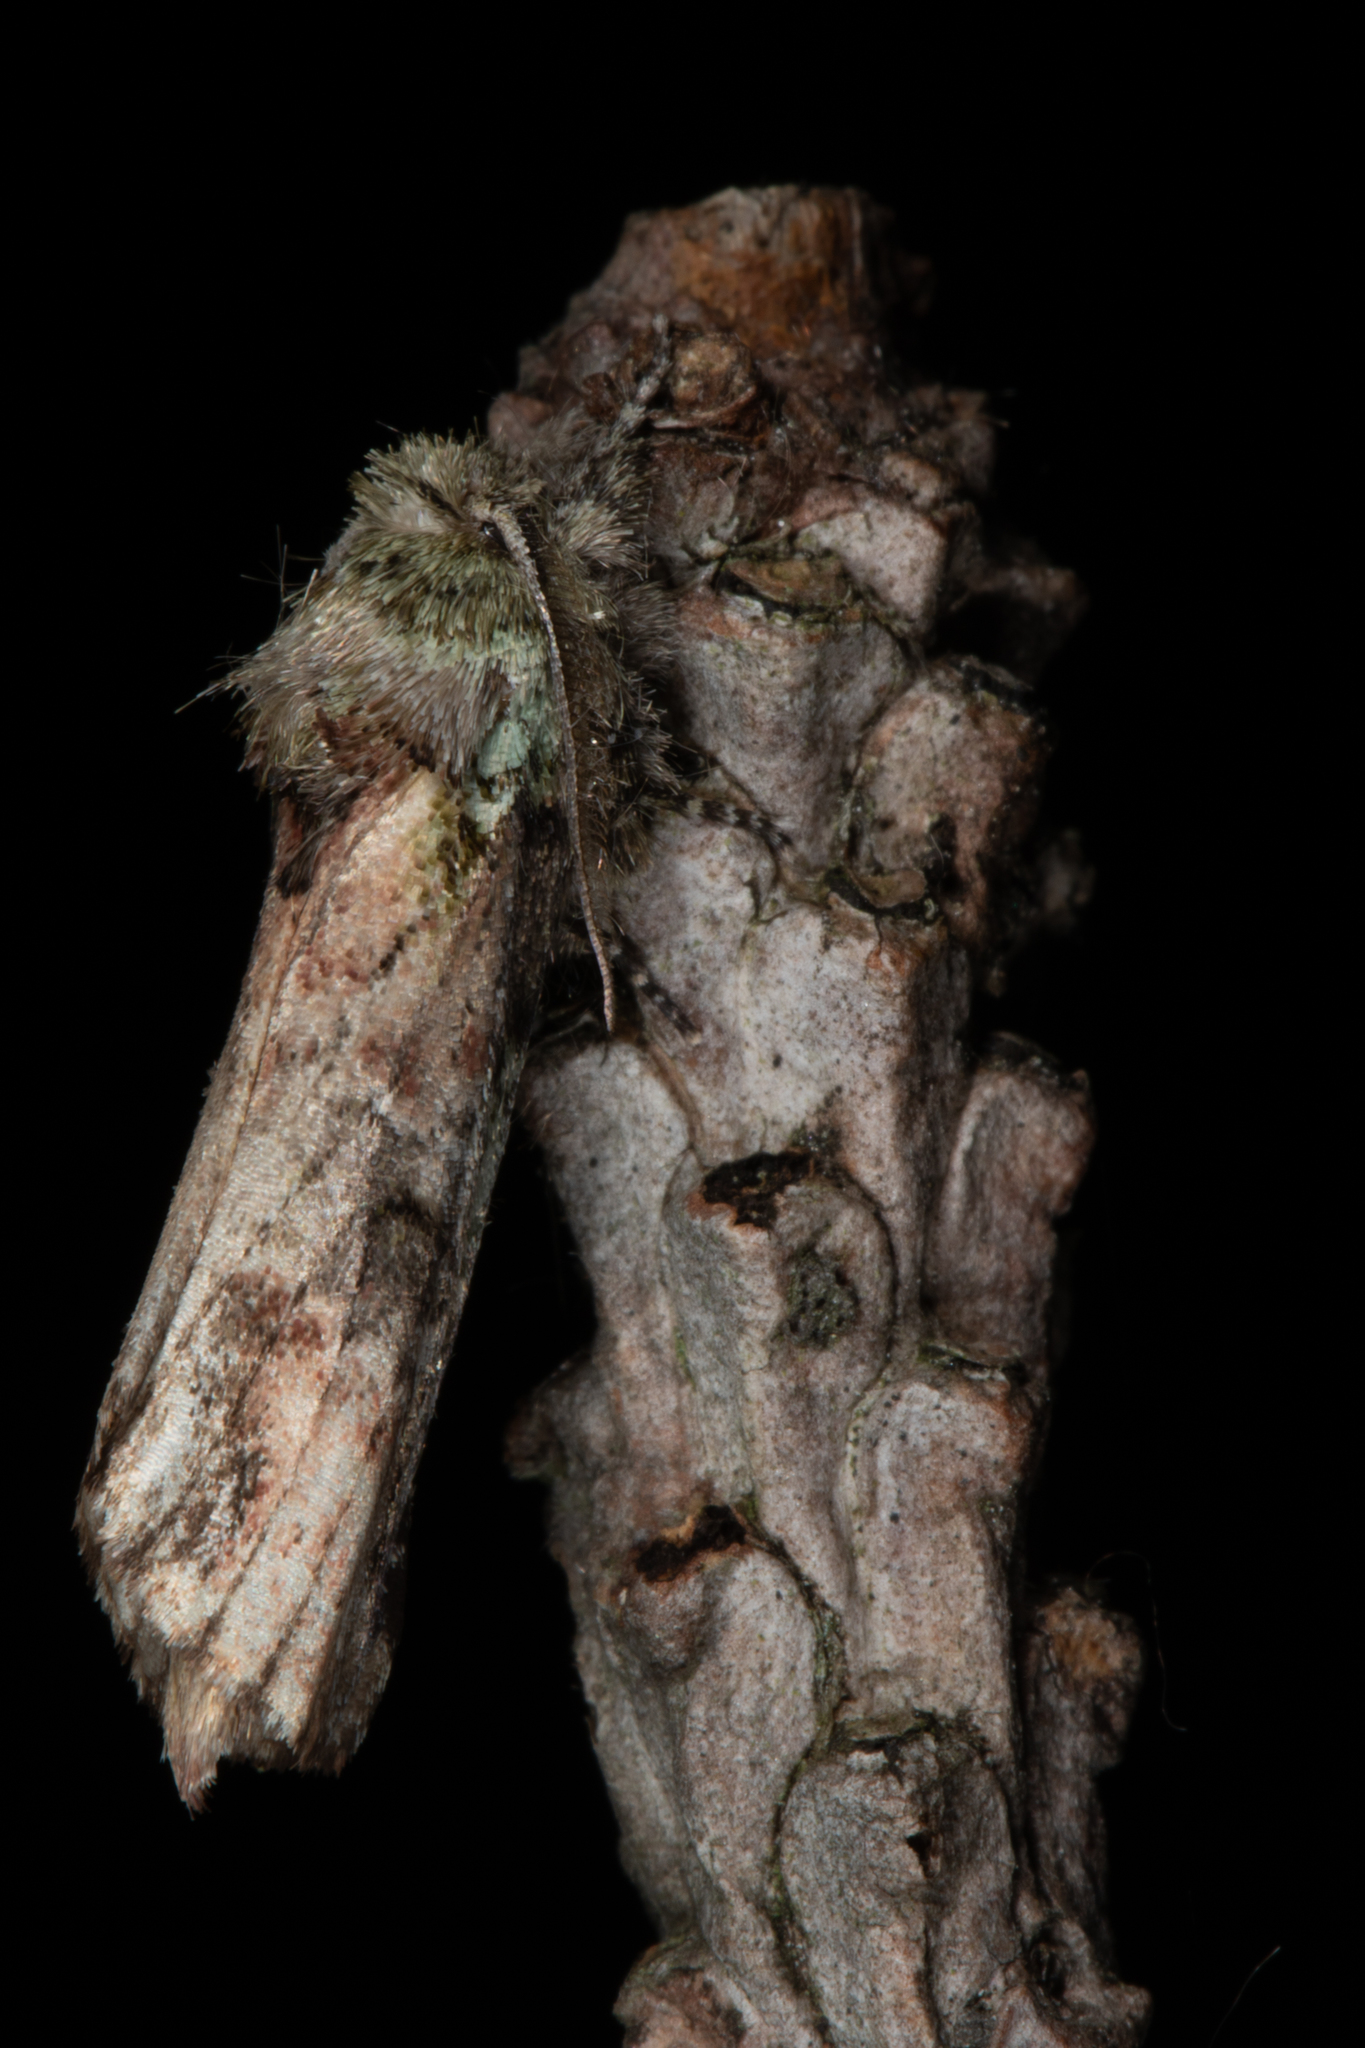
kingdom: Animalia
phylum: Arthropoda
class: Insecta
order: Lepidoptera
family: Notodontidae
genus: Schizura
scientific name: Schizura
